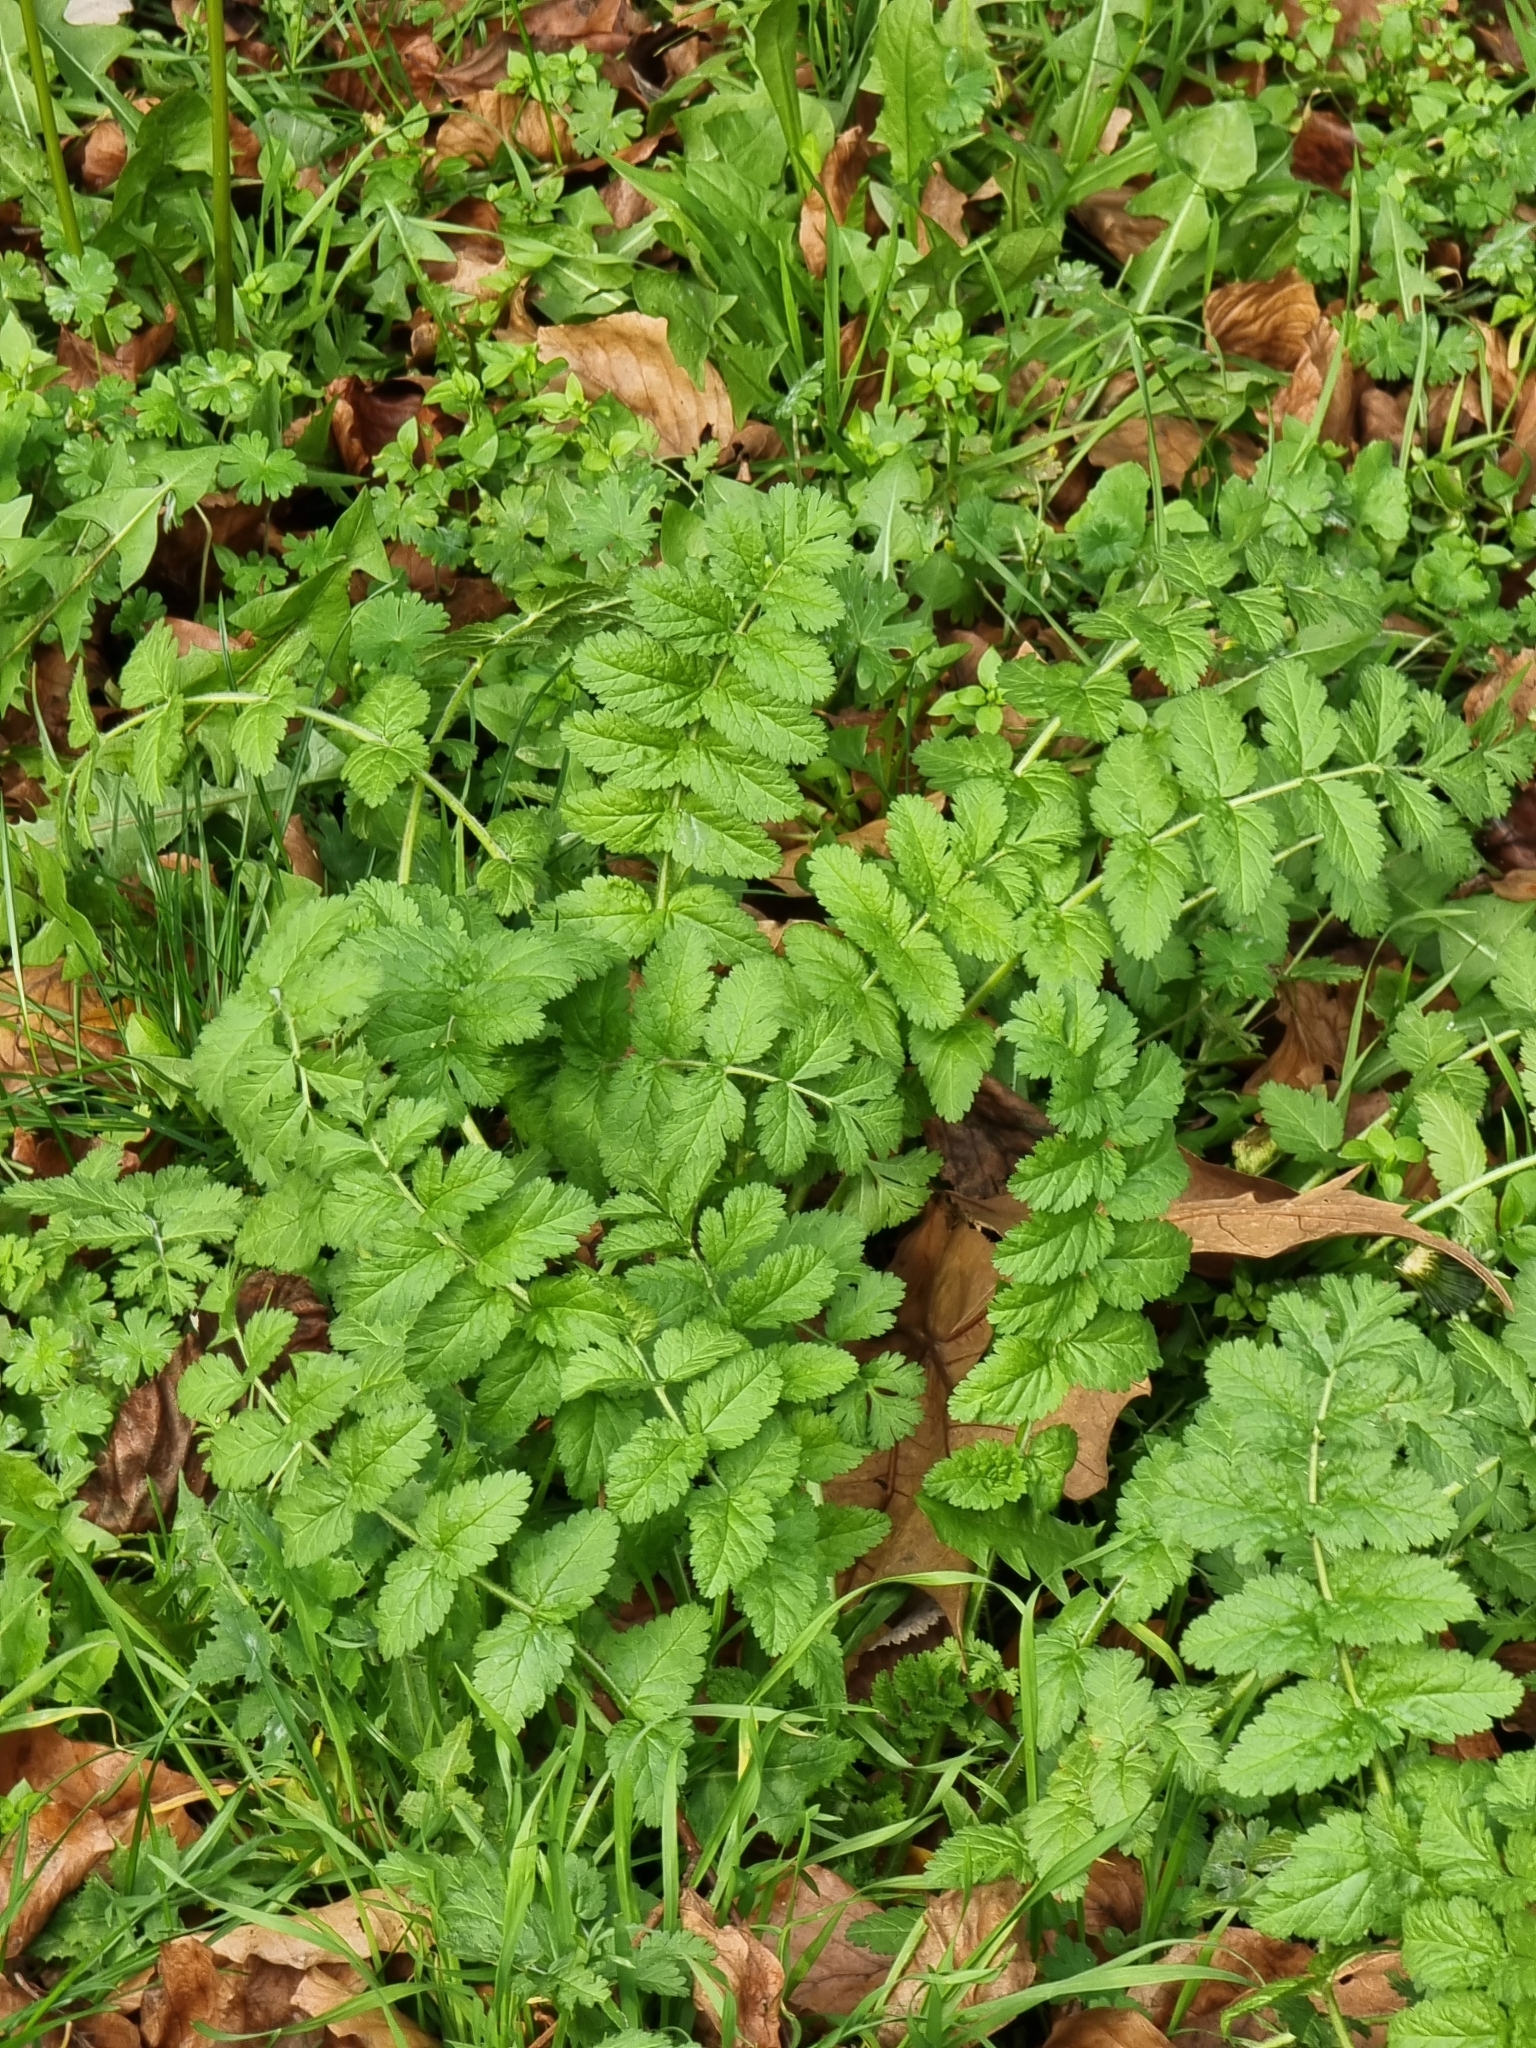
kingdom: Plantae
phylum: Tracheophyta
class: Magnoliopsida
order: Geraniales
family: Geraniaceae
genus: Erodium
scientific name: Erodium moschatum
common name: Musk stork's-bill
